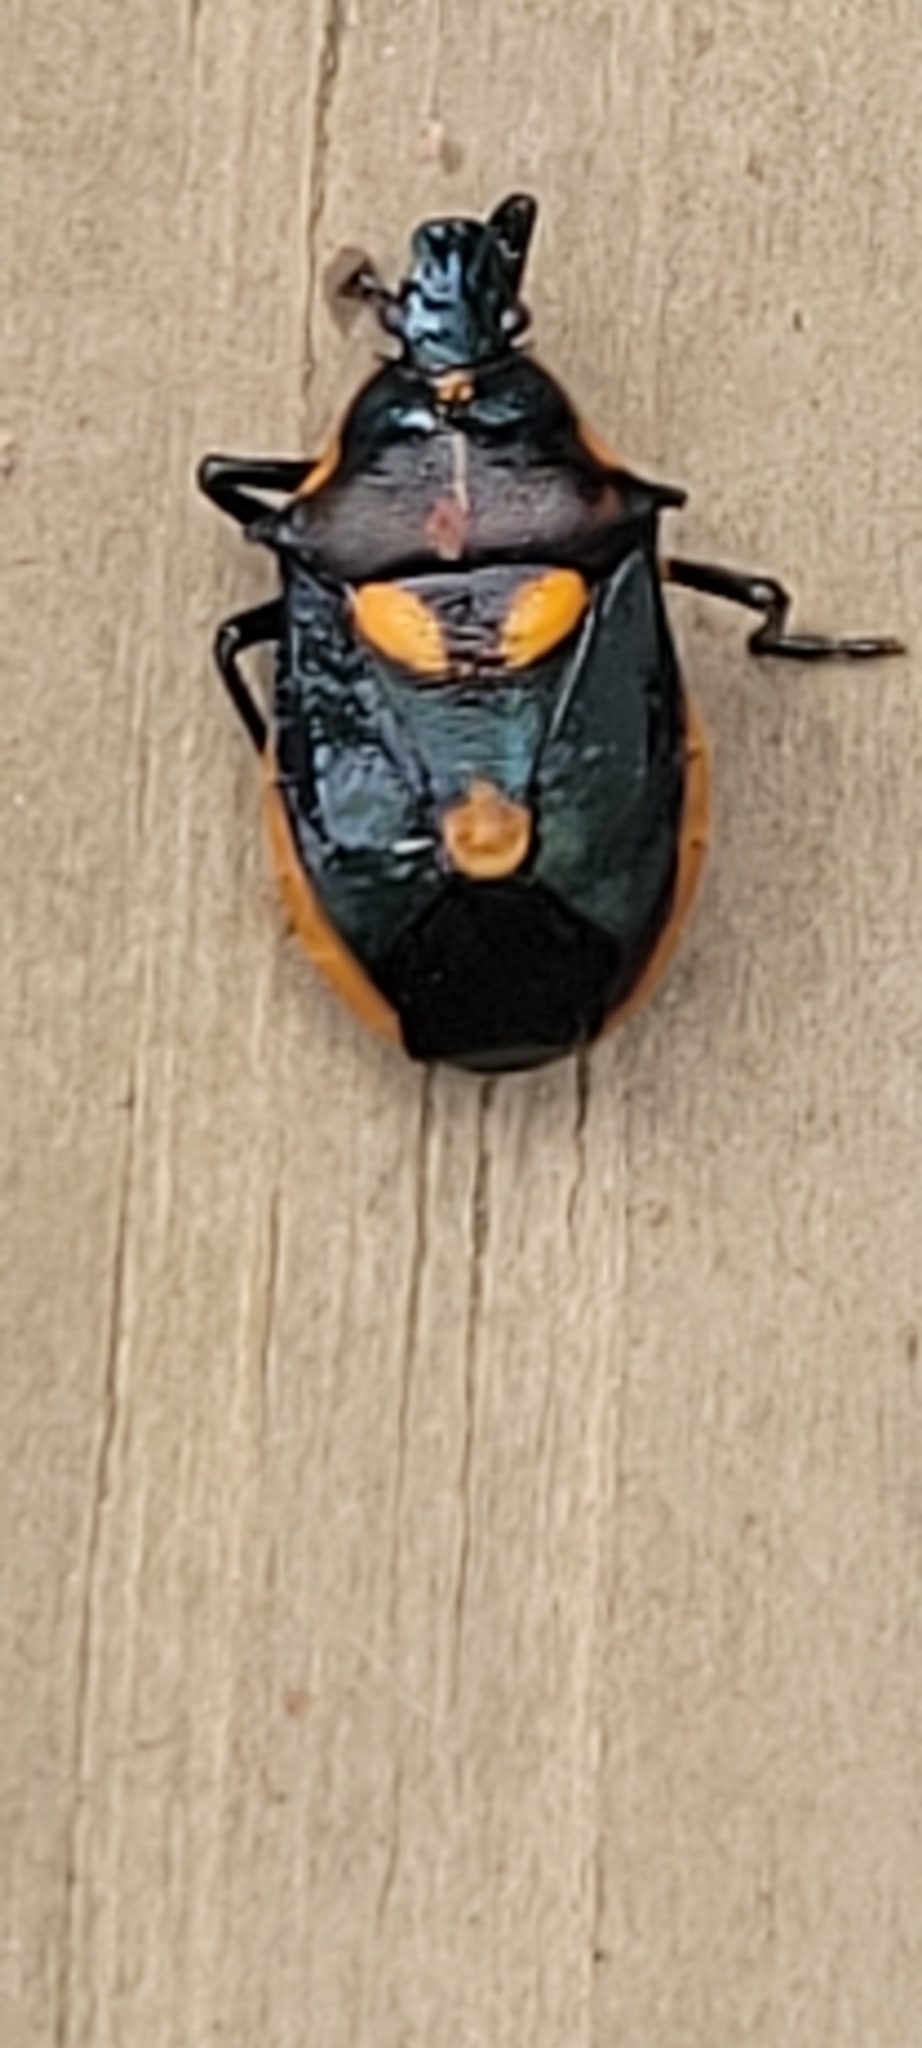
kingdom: Animalia
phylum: Arthropoda
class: Insecta
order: Hemiptera
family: Pentatomidae
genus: Euthyrhynchus
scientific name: Euthyrhynchus floridanus
